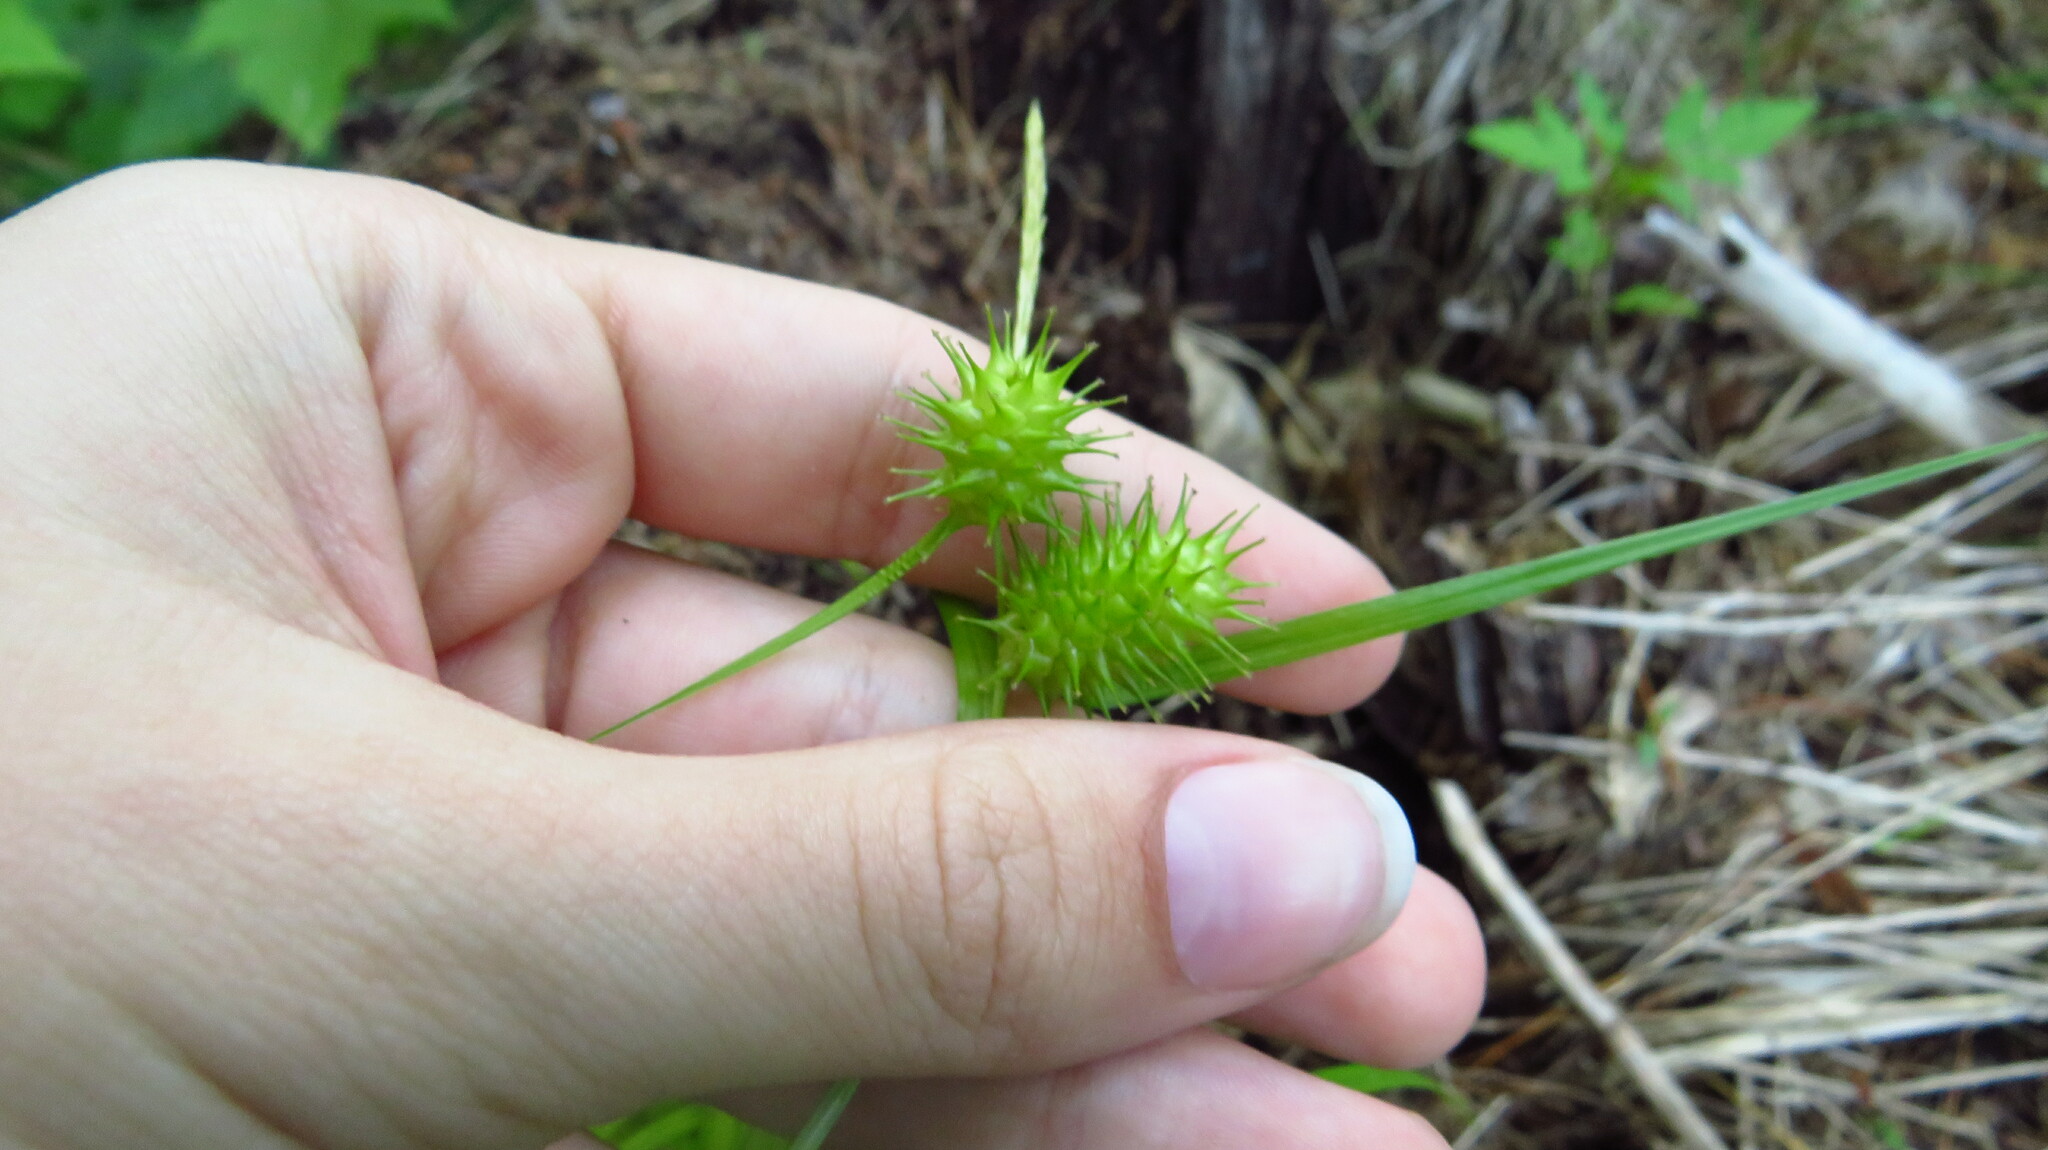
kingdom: Plantae
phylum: Tracheophyta
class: Liliopsida
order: Poales
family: Cyperaceae
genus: Carex
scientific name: Carex lurida
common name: Sallow sedge
